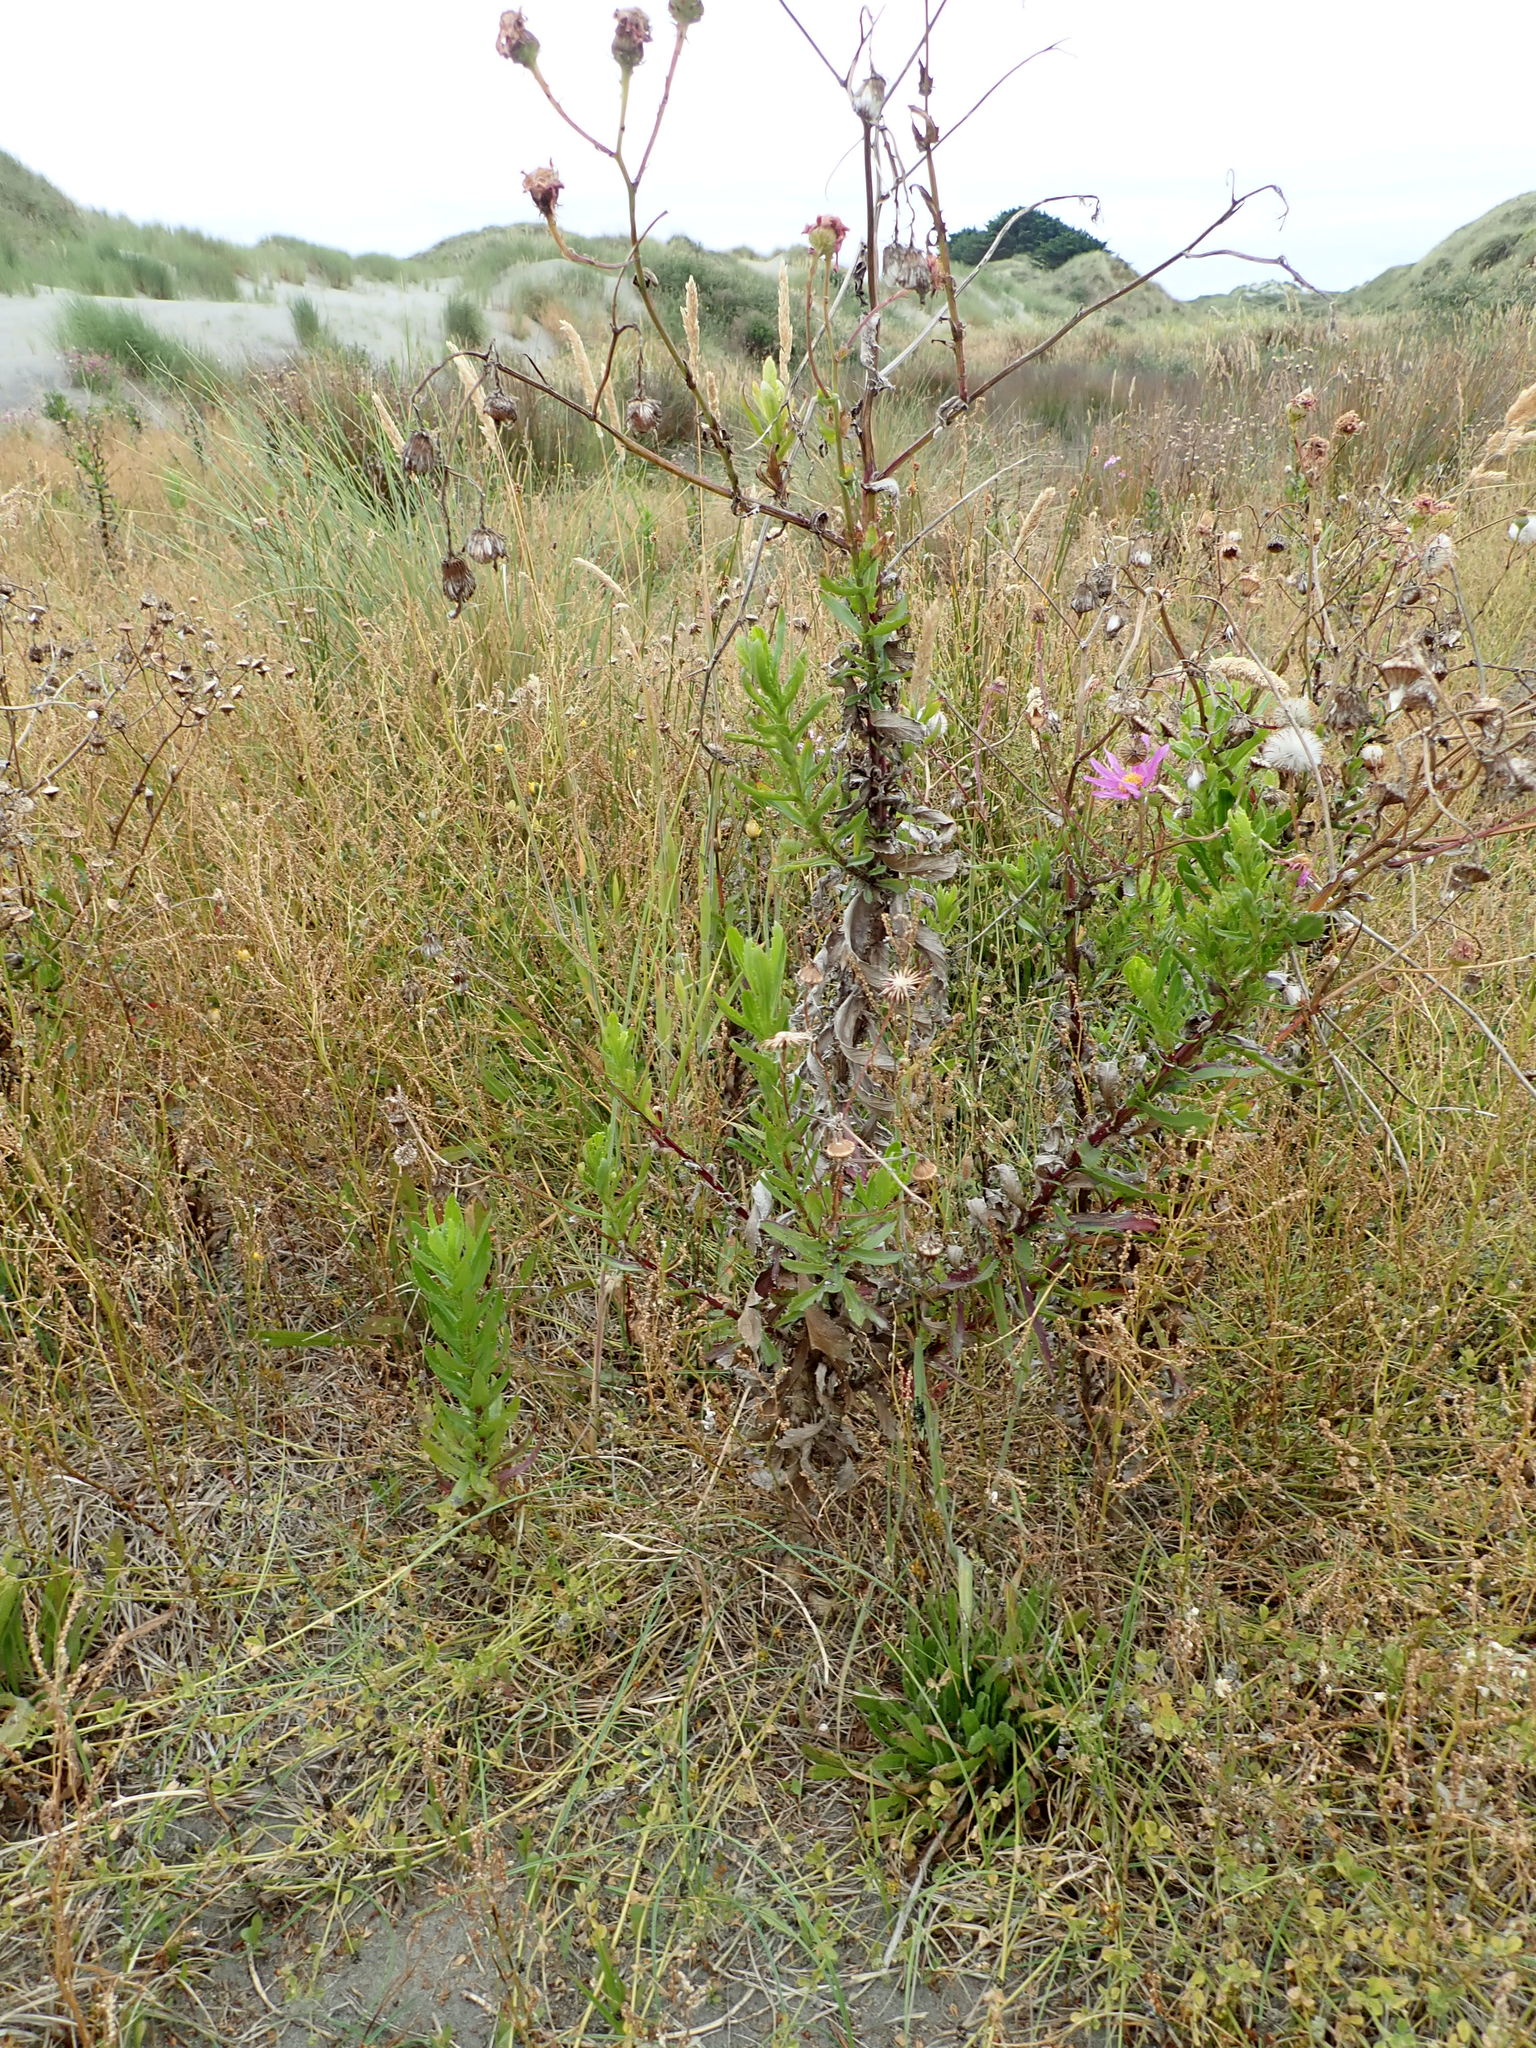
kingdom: Plantae
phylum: Tracheophyta
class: Magnoliopsida
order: Asterales
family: Asteraceae
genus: Senecio
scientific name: Senecio glastifolius
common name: Woad-leaved ragwort
